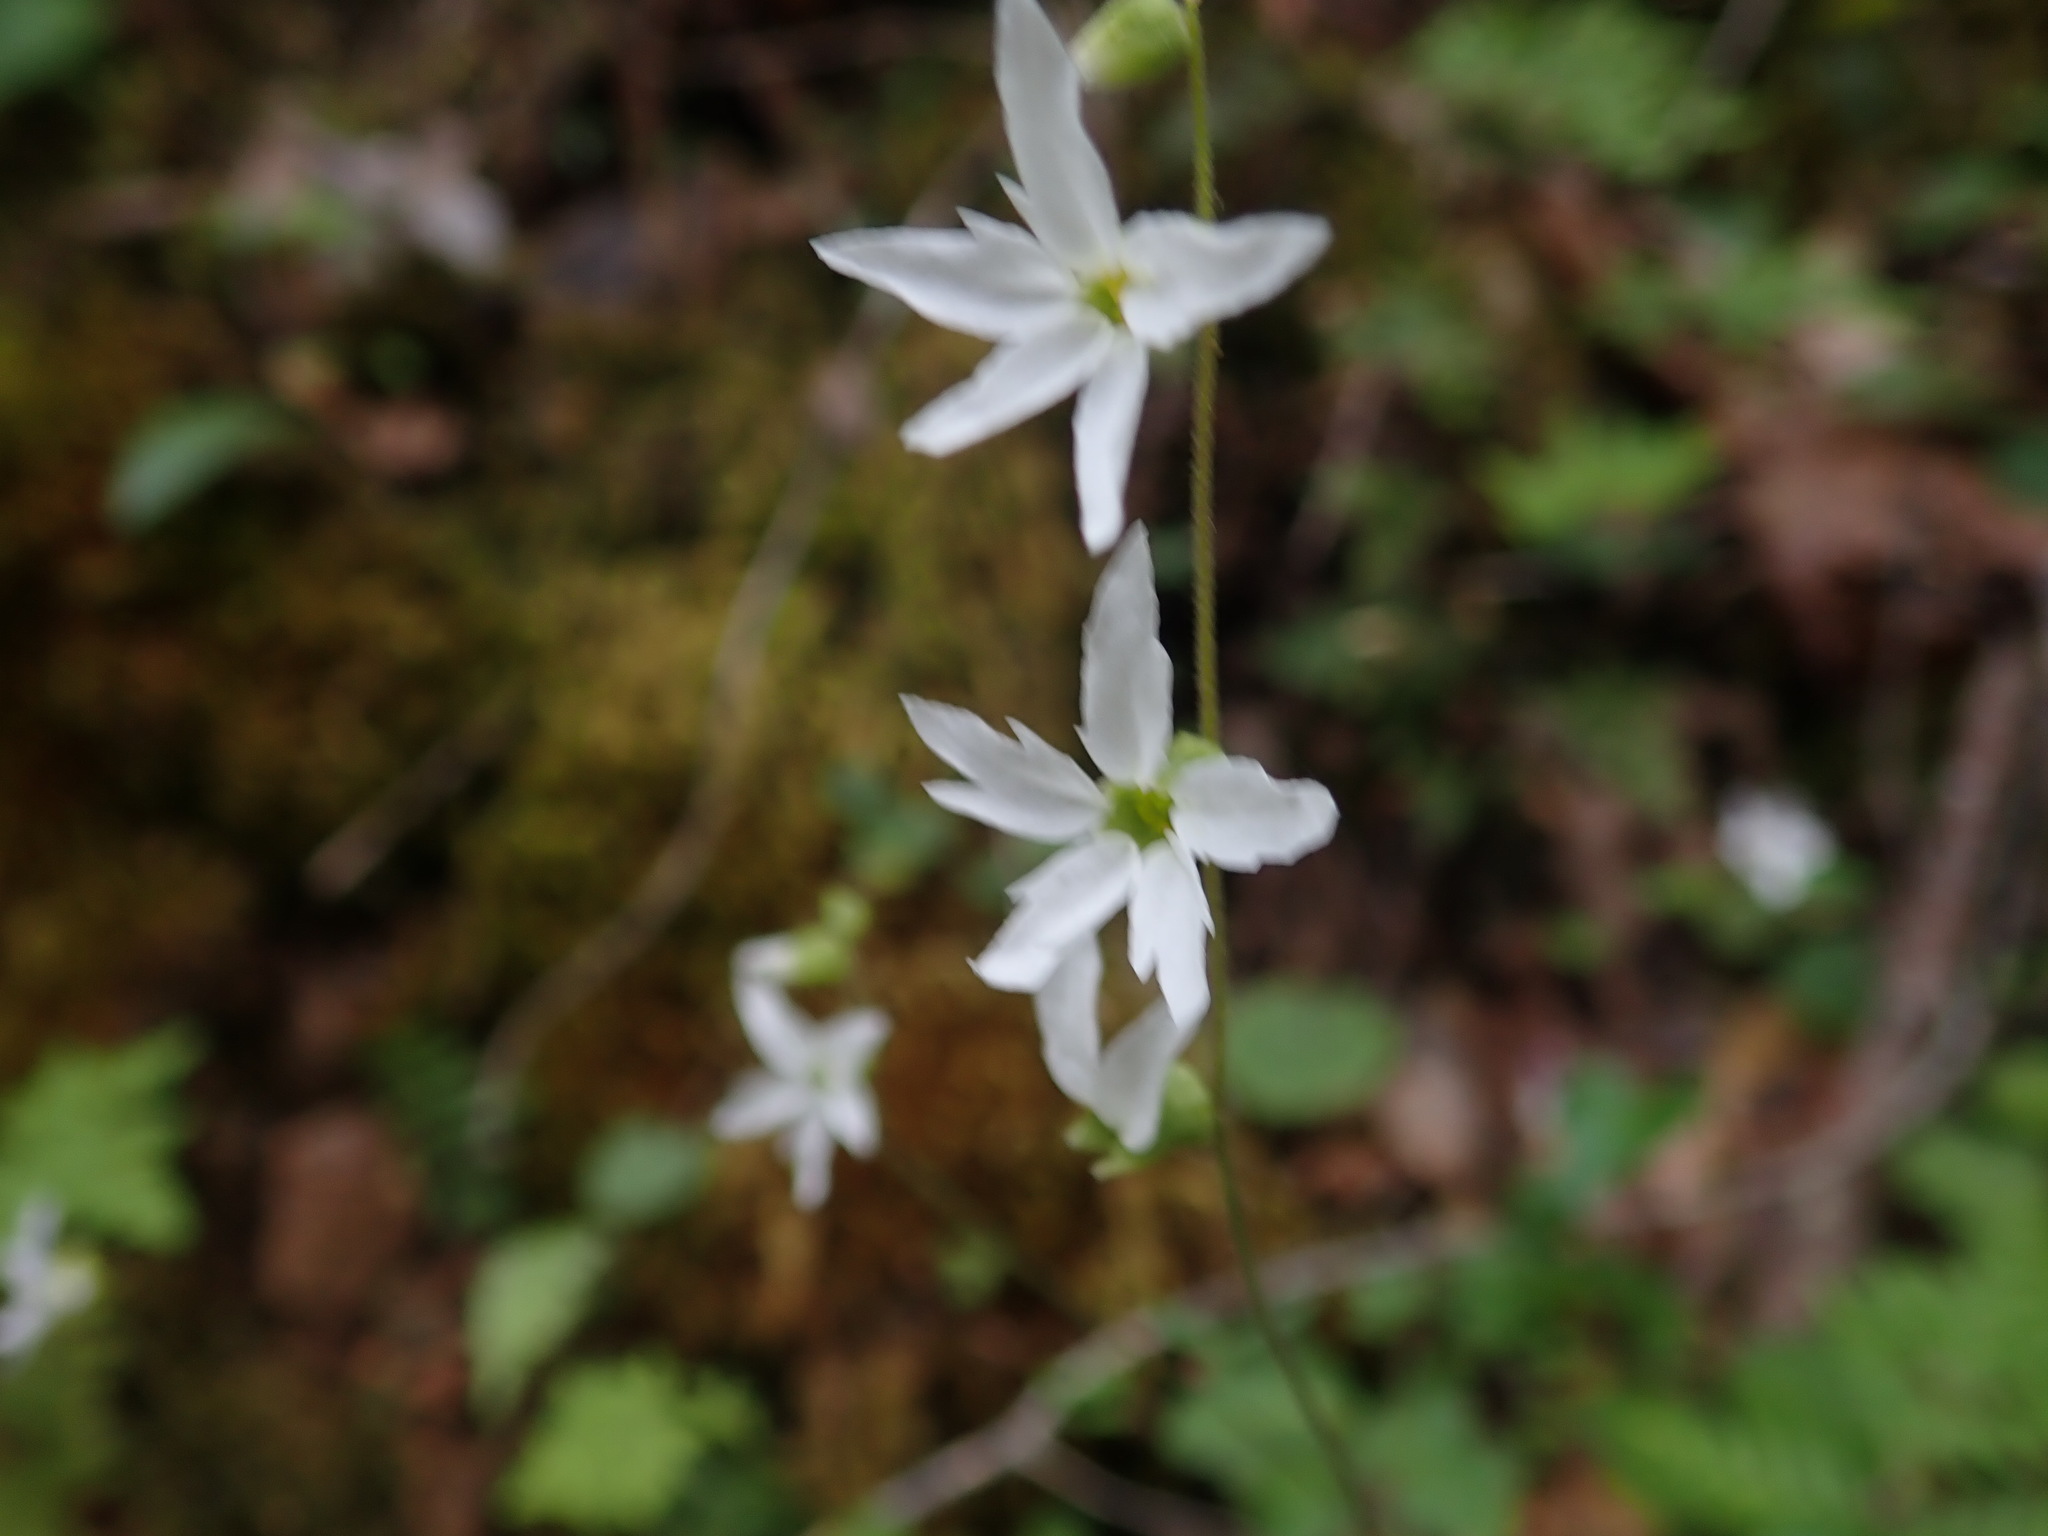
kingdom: Plantae
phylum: Tracheophyta
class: Magnoliopsida
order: Saxifragales
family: Saxifragaceae
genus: Lithophragma
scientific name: Lithophragma heterophyllum
